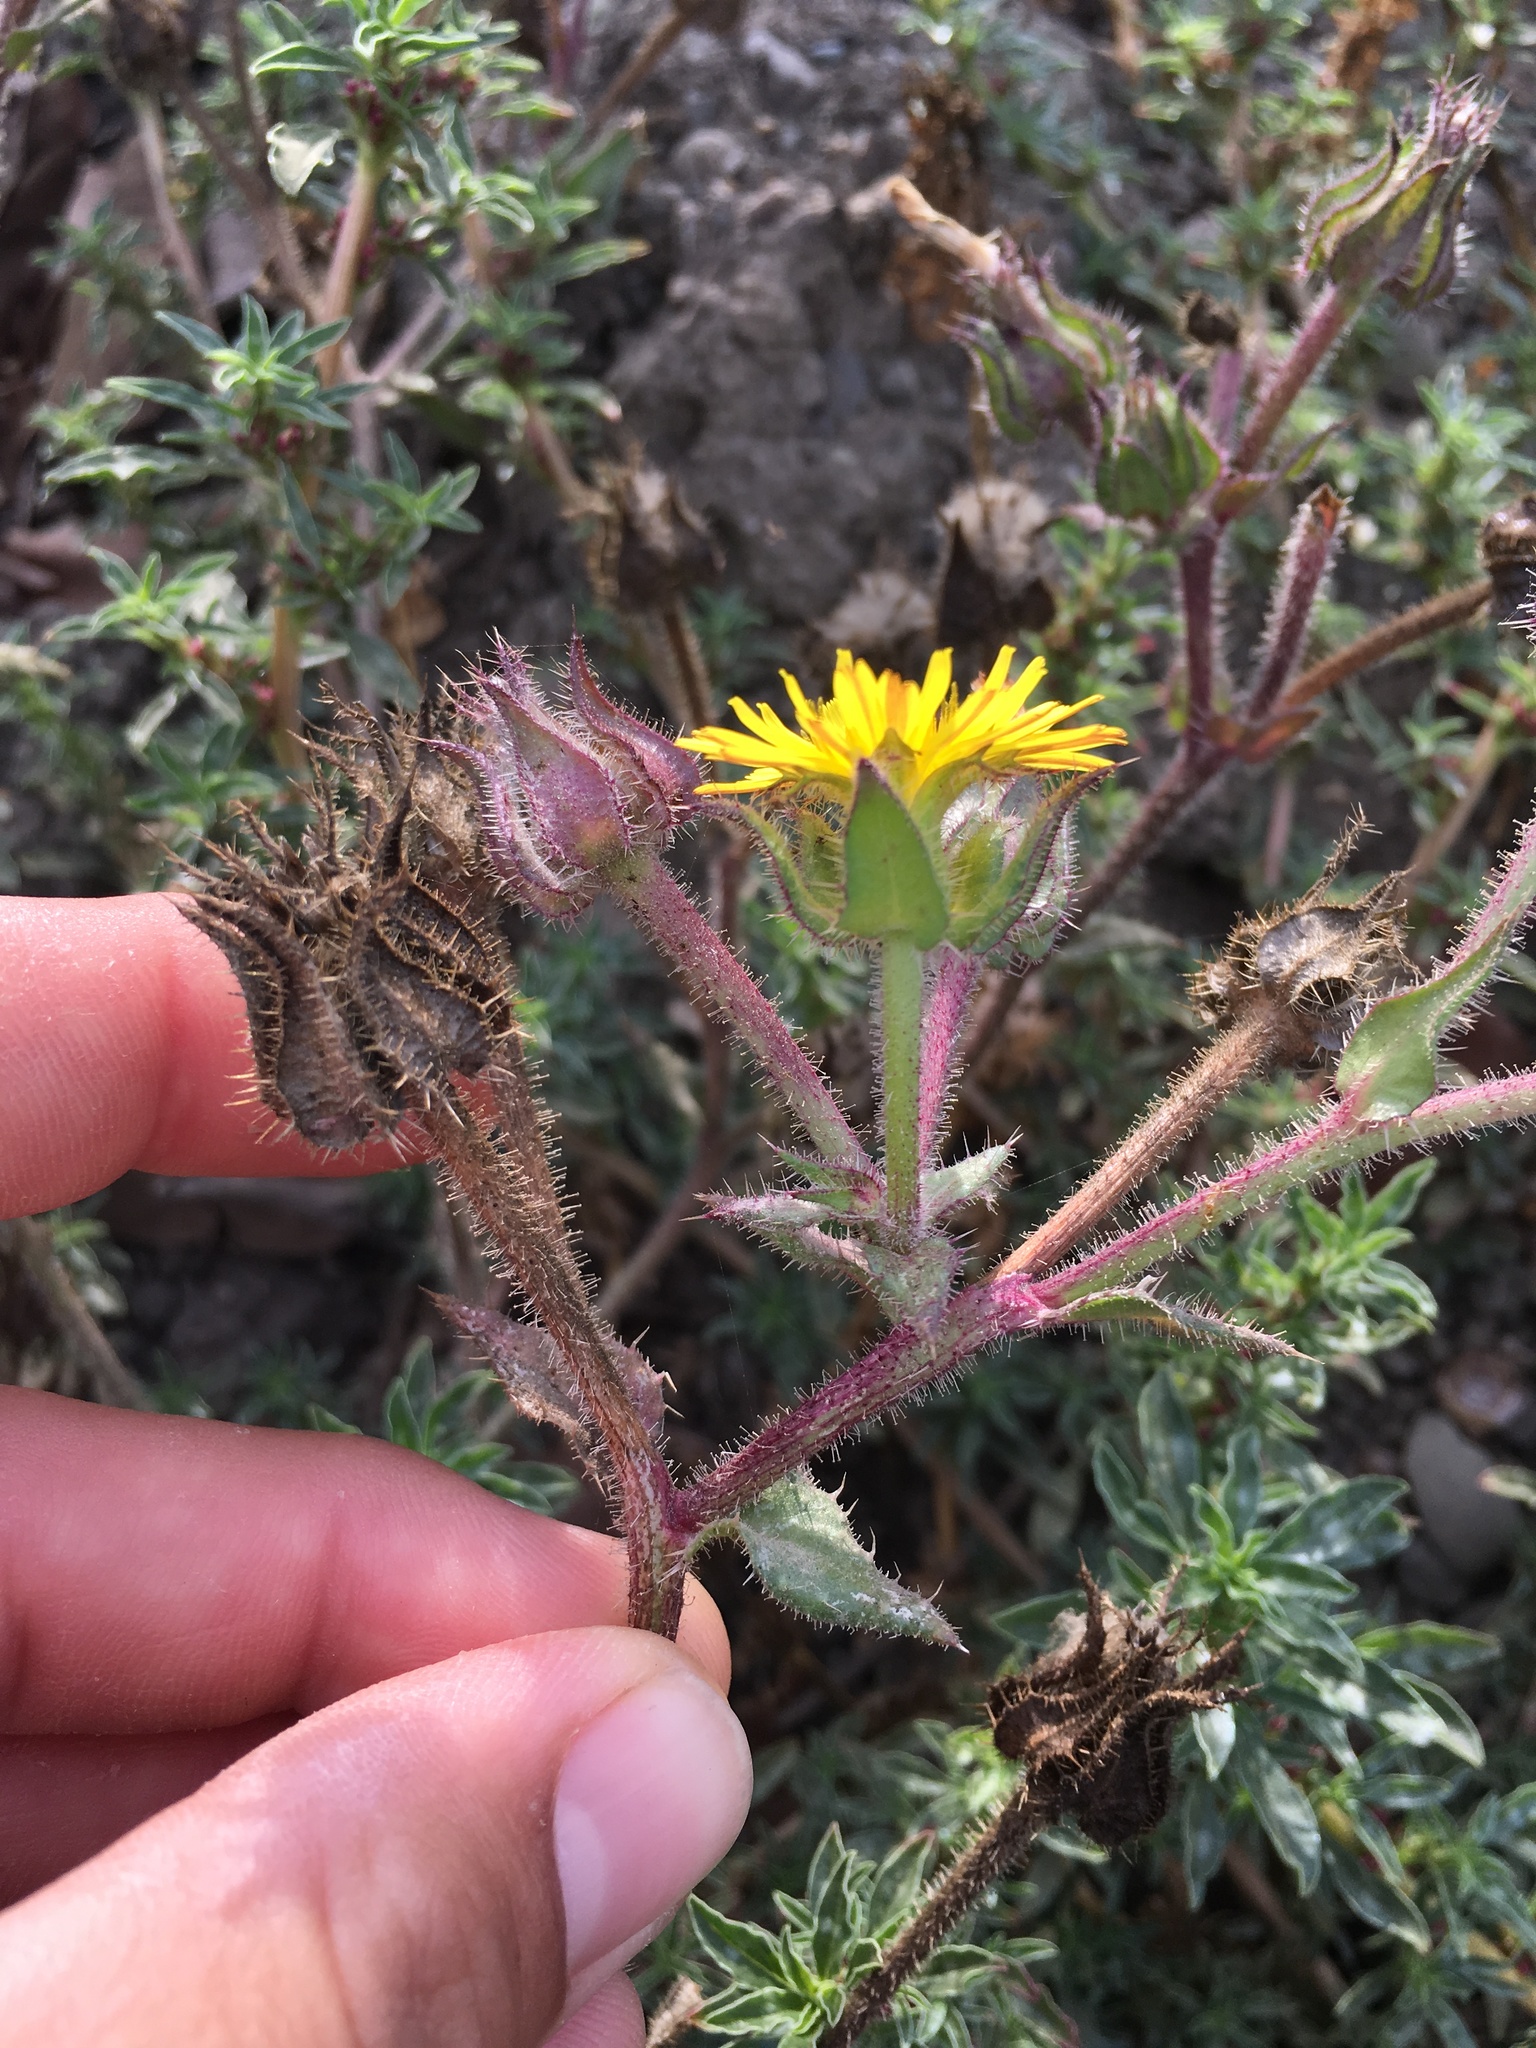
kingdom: Plantae
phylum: Tracheophyta
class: Magnoliopsida
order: Asterales
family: Asteraceae
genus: Helminthotheca
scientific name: Helminthotheca echioides
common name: Ox-tongue
